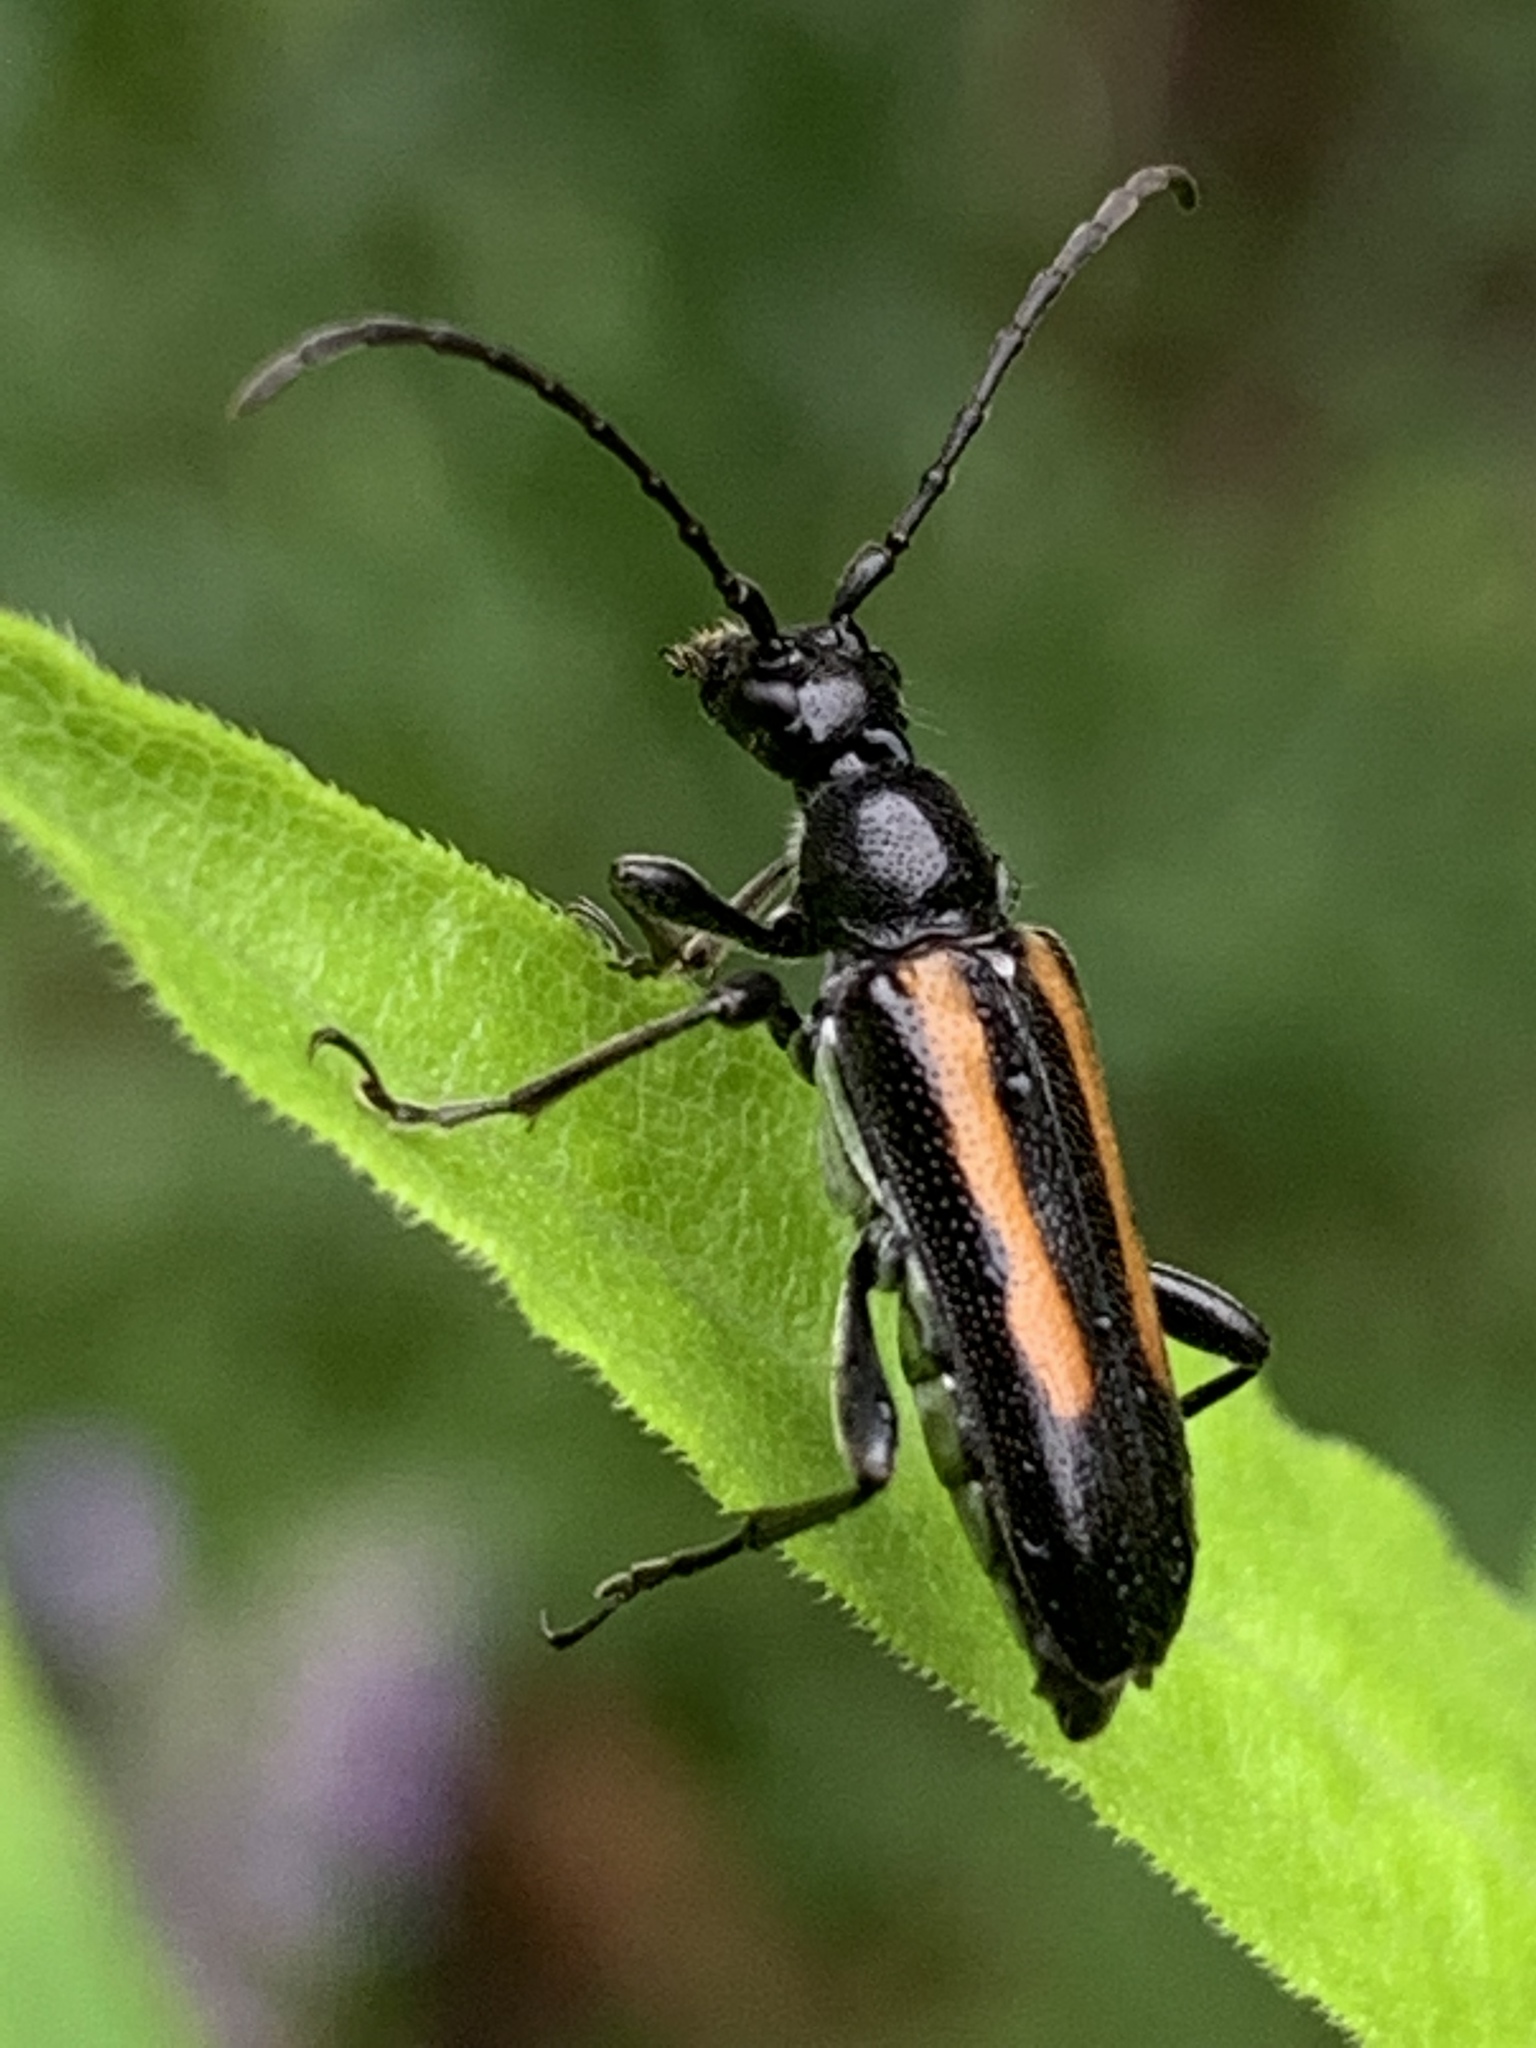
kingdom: Animalia
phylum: Arthropoda
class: Insecta
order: Coleoptera
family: Cerambycidae
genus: Strangalepta
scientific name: Strangalepta abbreviata
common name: Strangalepta flower longhorn beetle
